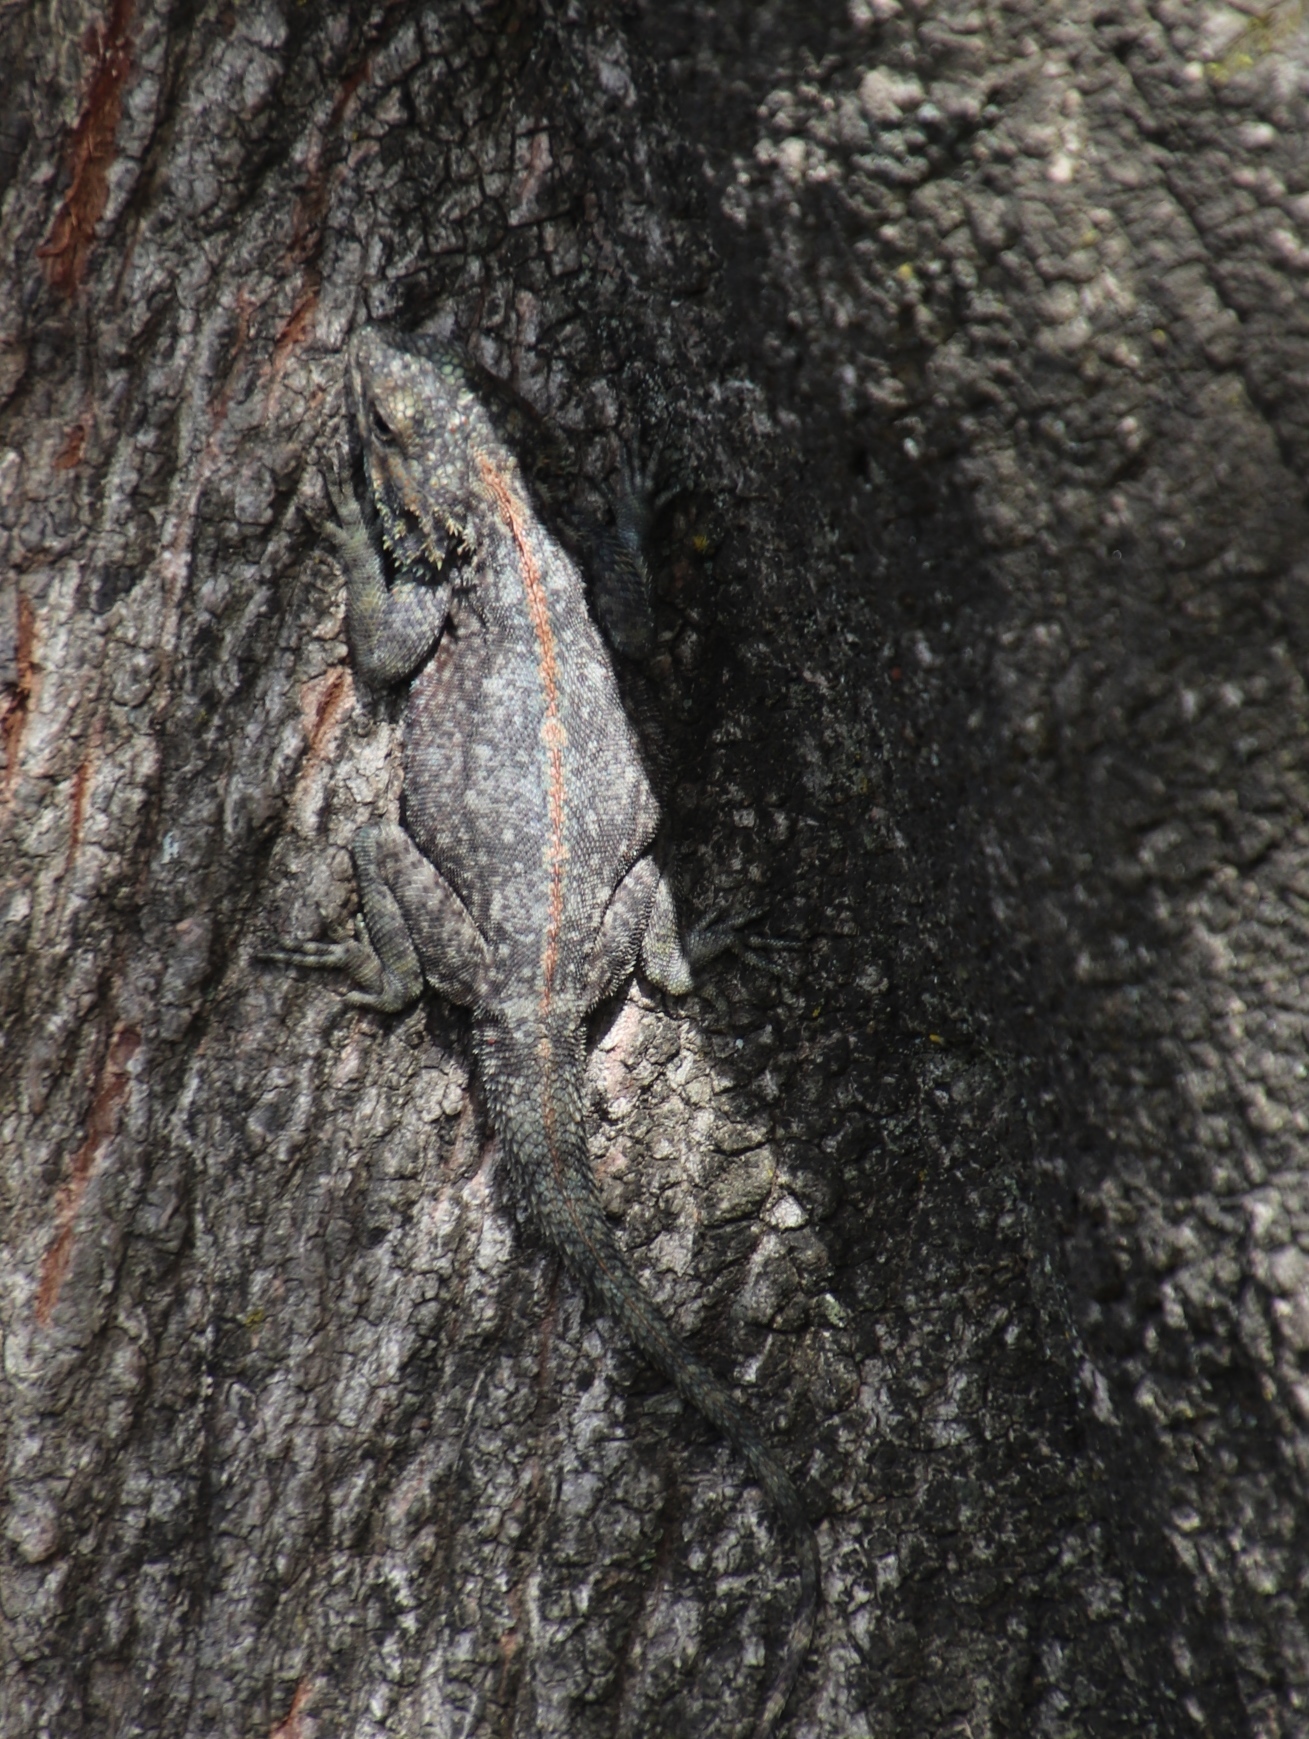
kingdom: Animalia
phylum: Chordata
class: Squamata
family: Agamidae
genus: Agama
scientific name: Agama atra
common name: Southern african rock agama
